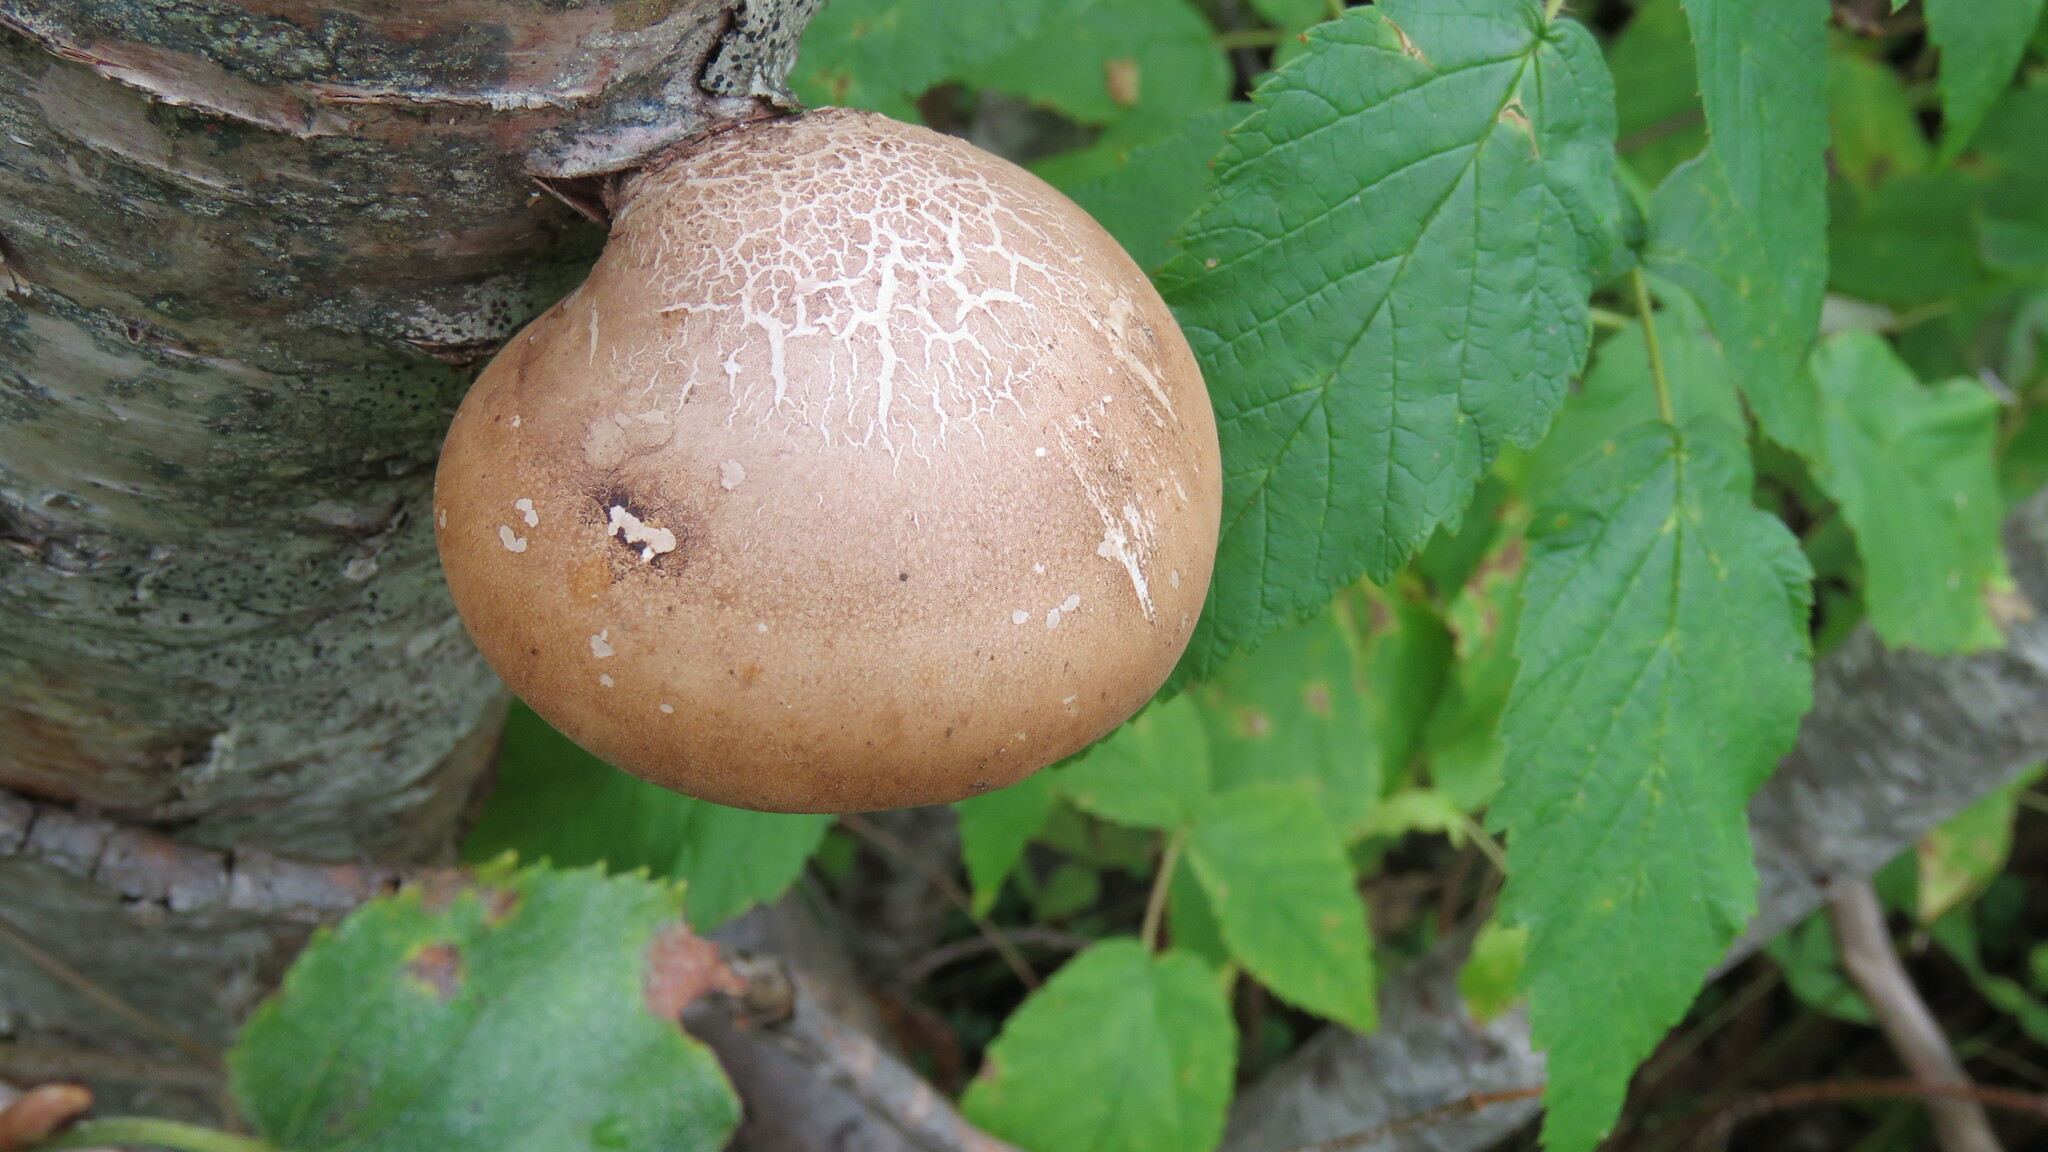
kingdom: Fungi
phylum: Basidiomycota
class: Agaricomycetes
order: Polyporales
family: Fomitopsidaceae
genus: Fomitopsis
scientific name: Fomitopsis betulina
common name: Birch polypore
